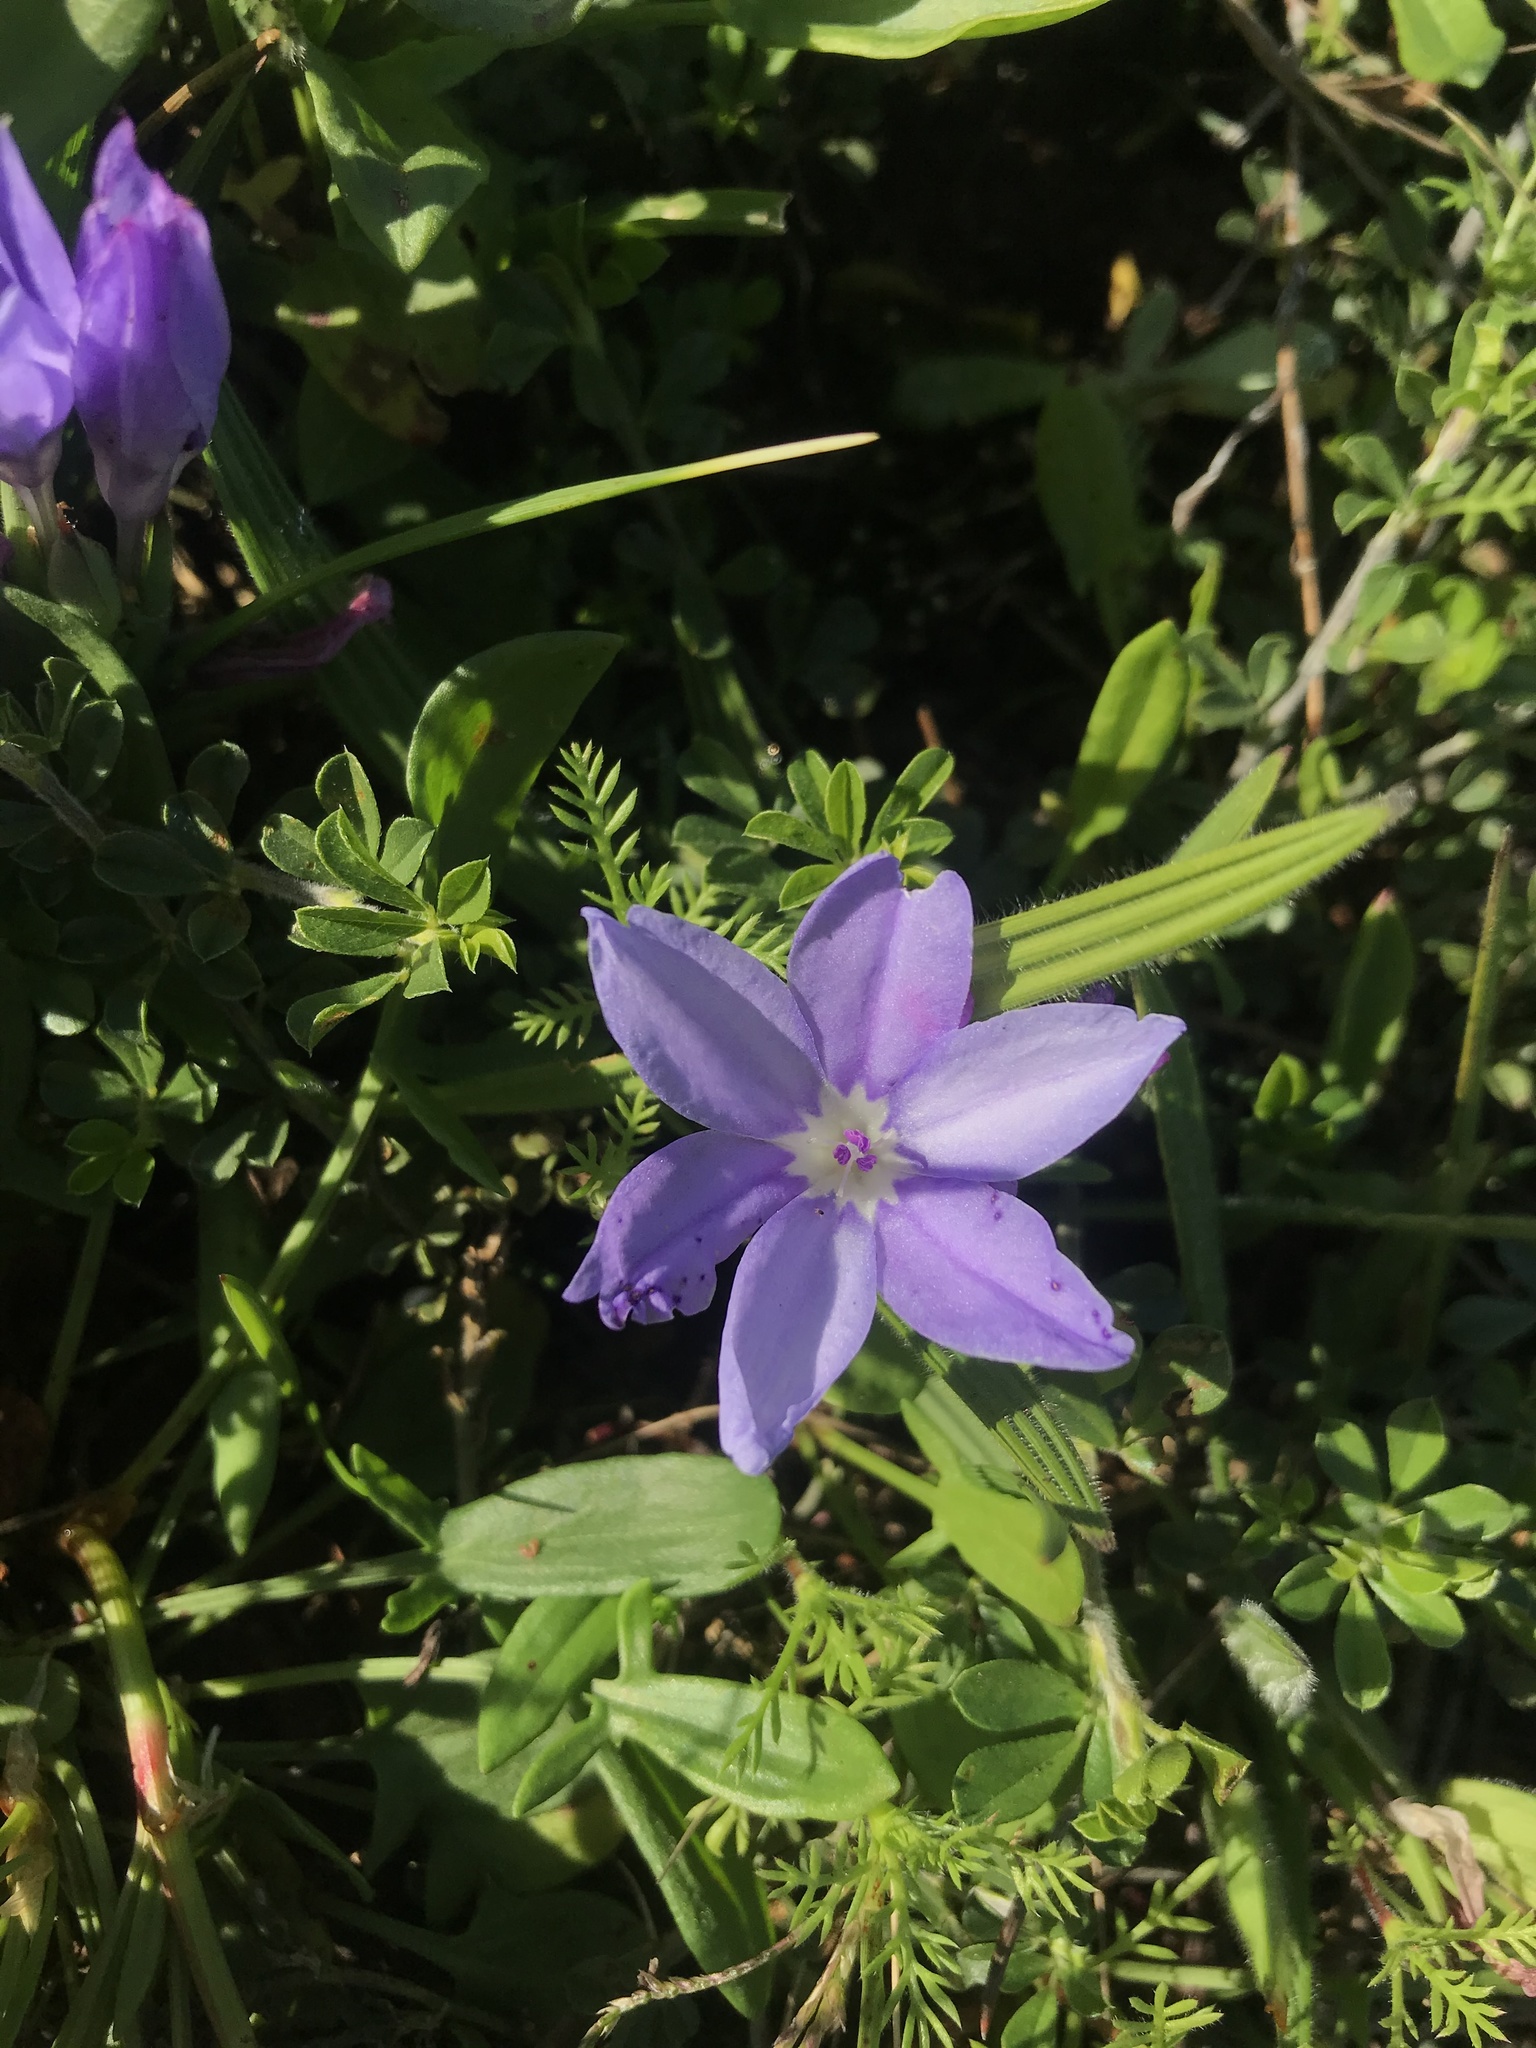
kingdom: Plantae
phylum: Tracheophyta
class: Liliopsida
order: Asparagales
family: Iridaceae
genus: Babiana
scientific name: Babiana villosula
